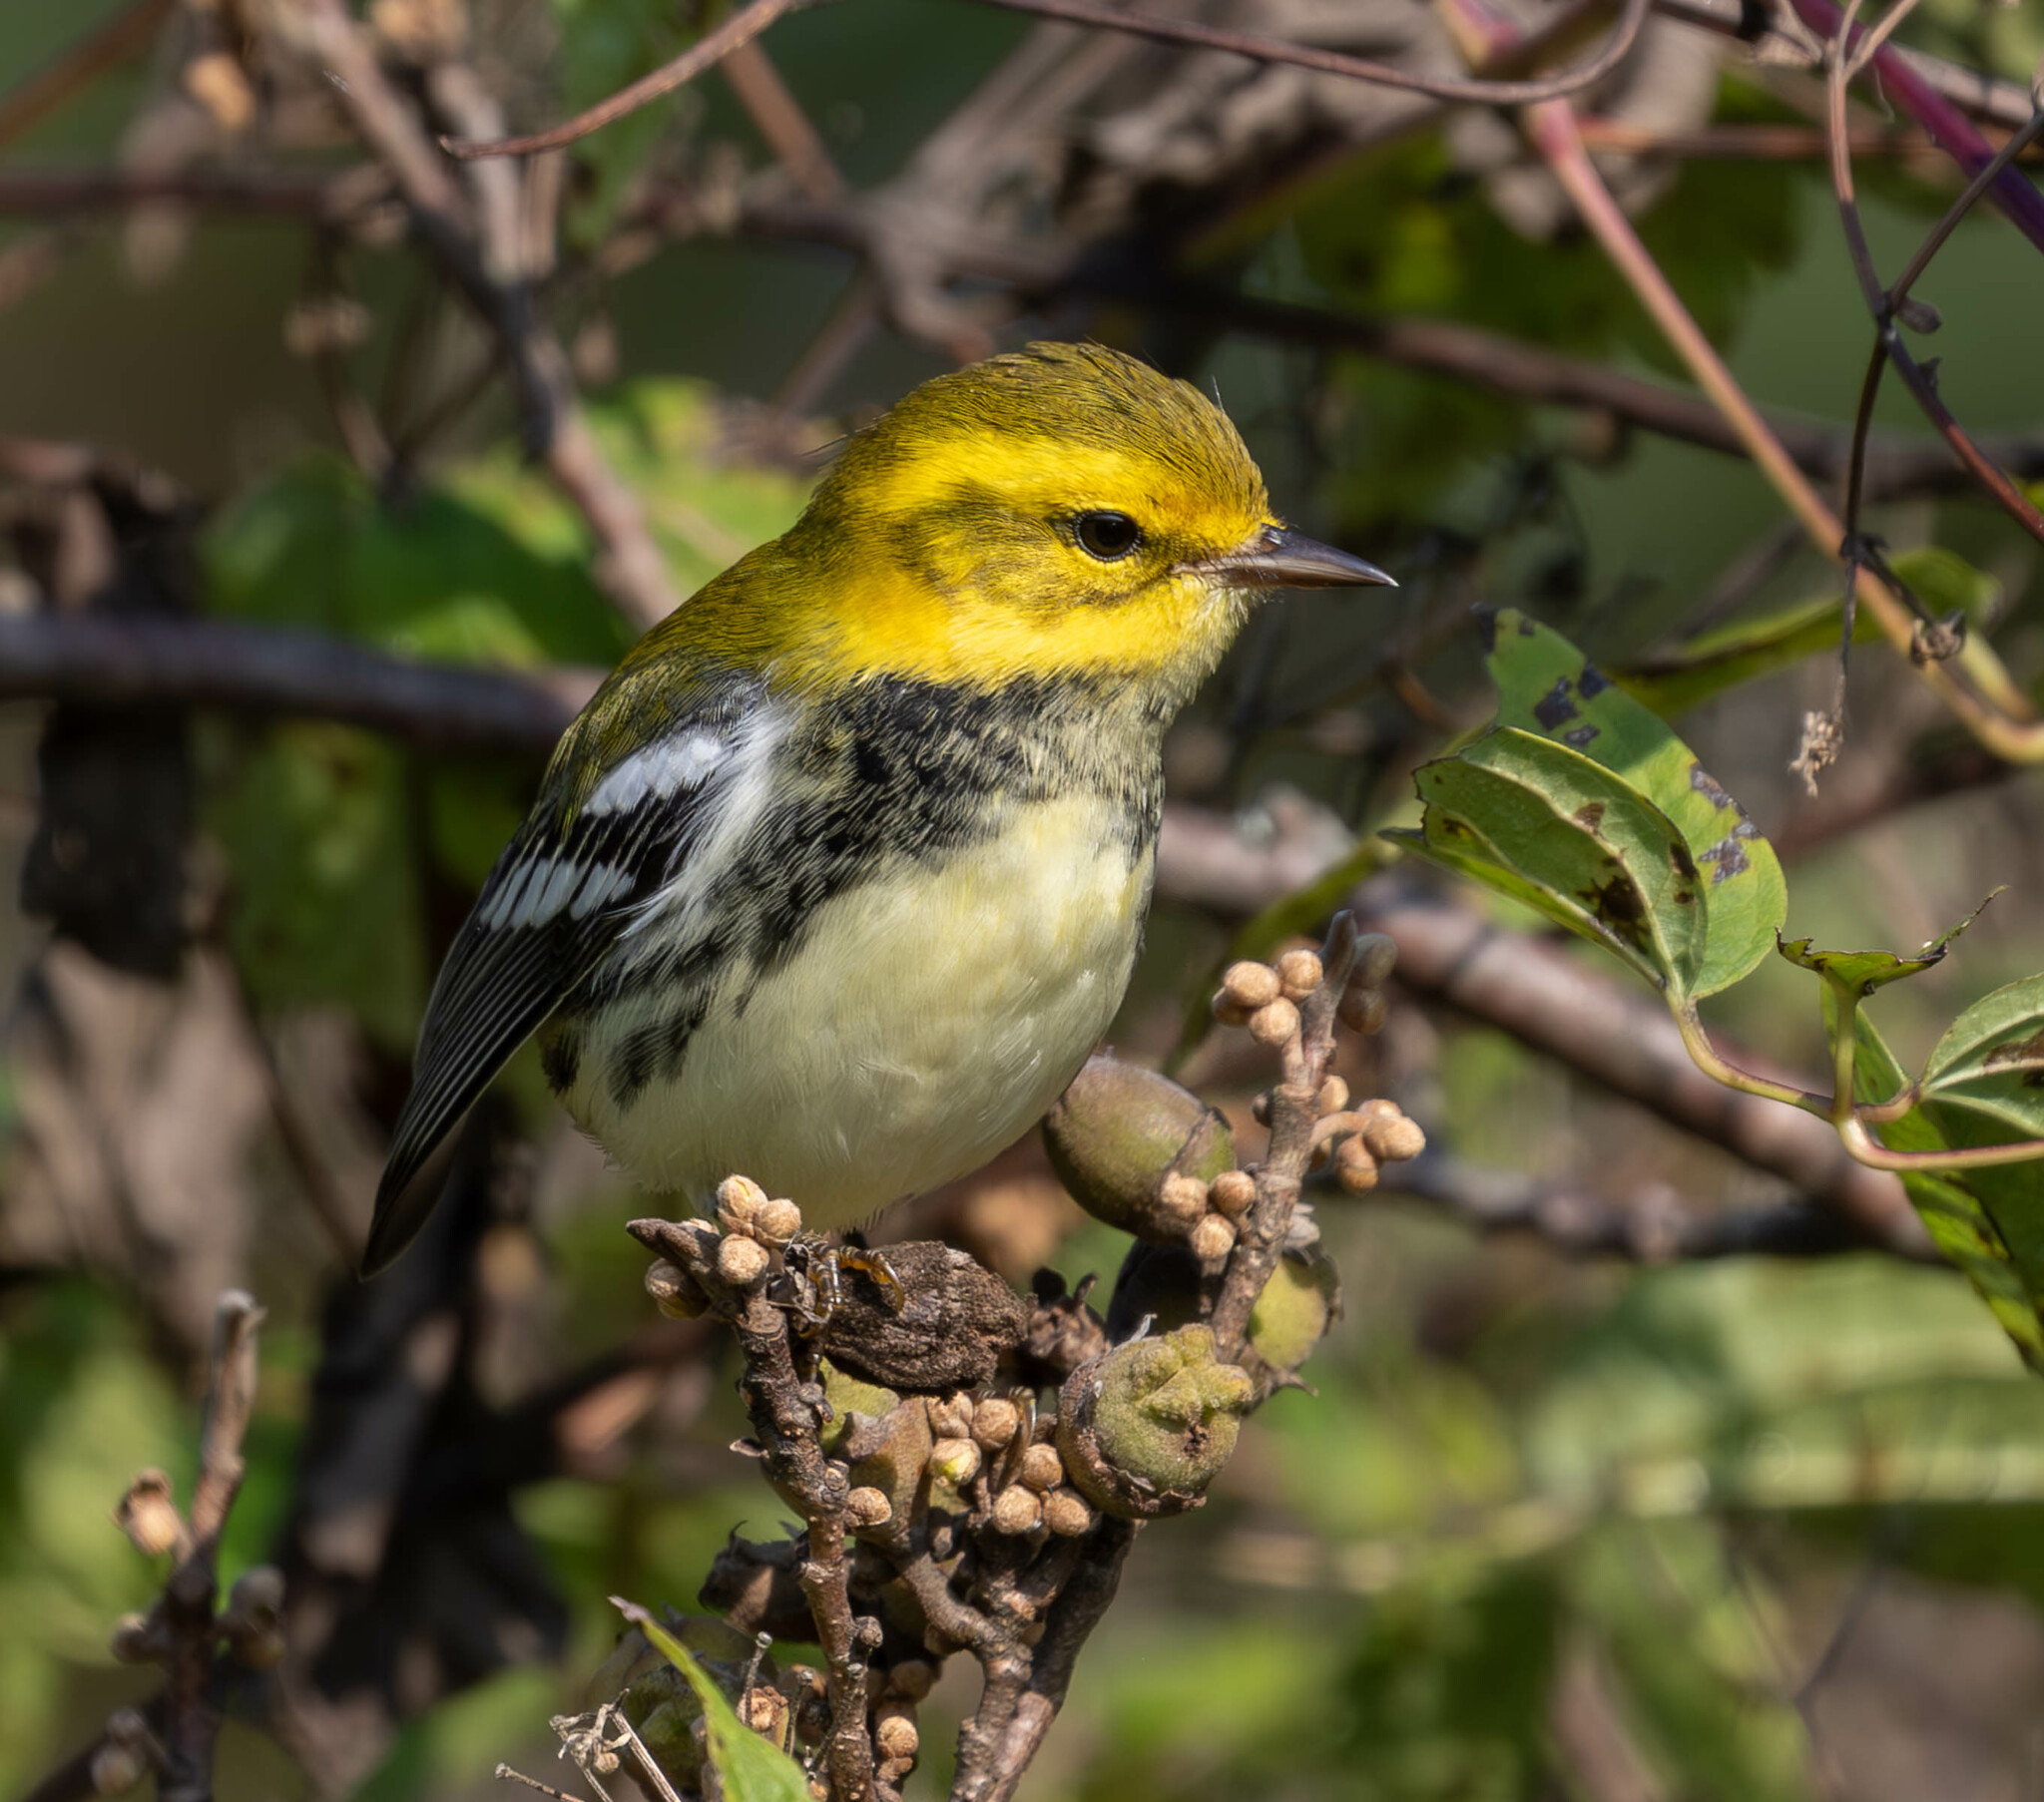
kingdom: Animalia
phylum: Chordata
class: Aves
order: Passeriformes
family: Parulidae
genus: Setophaga
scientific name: Setophaga virens
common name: Black-throated green warbler
